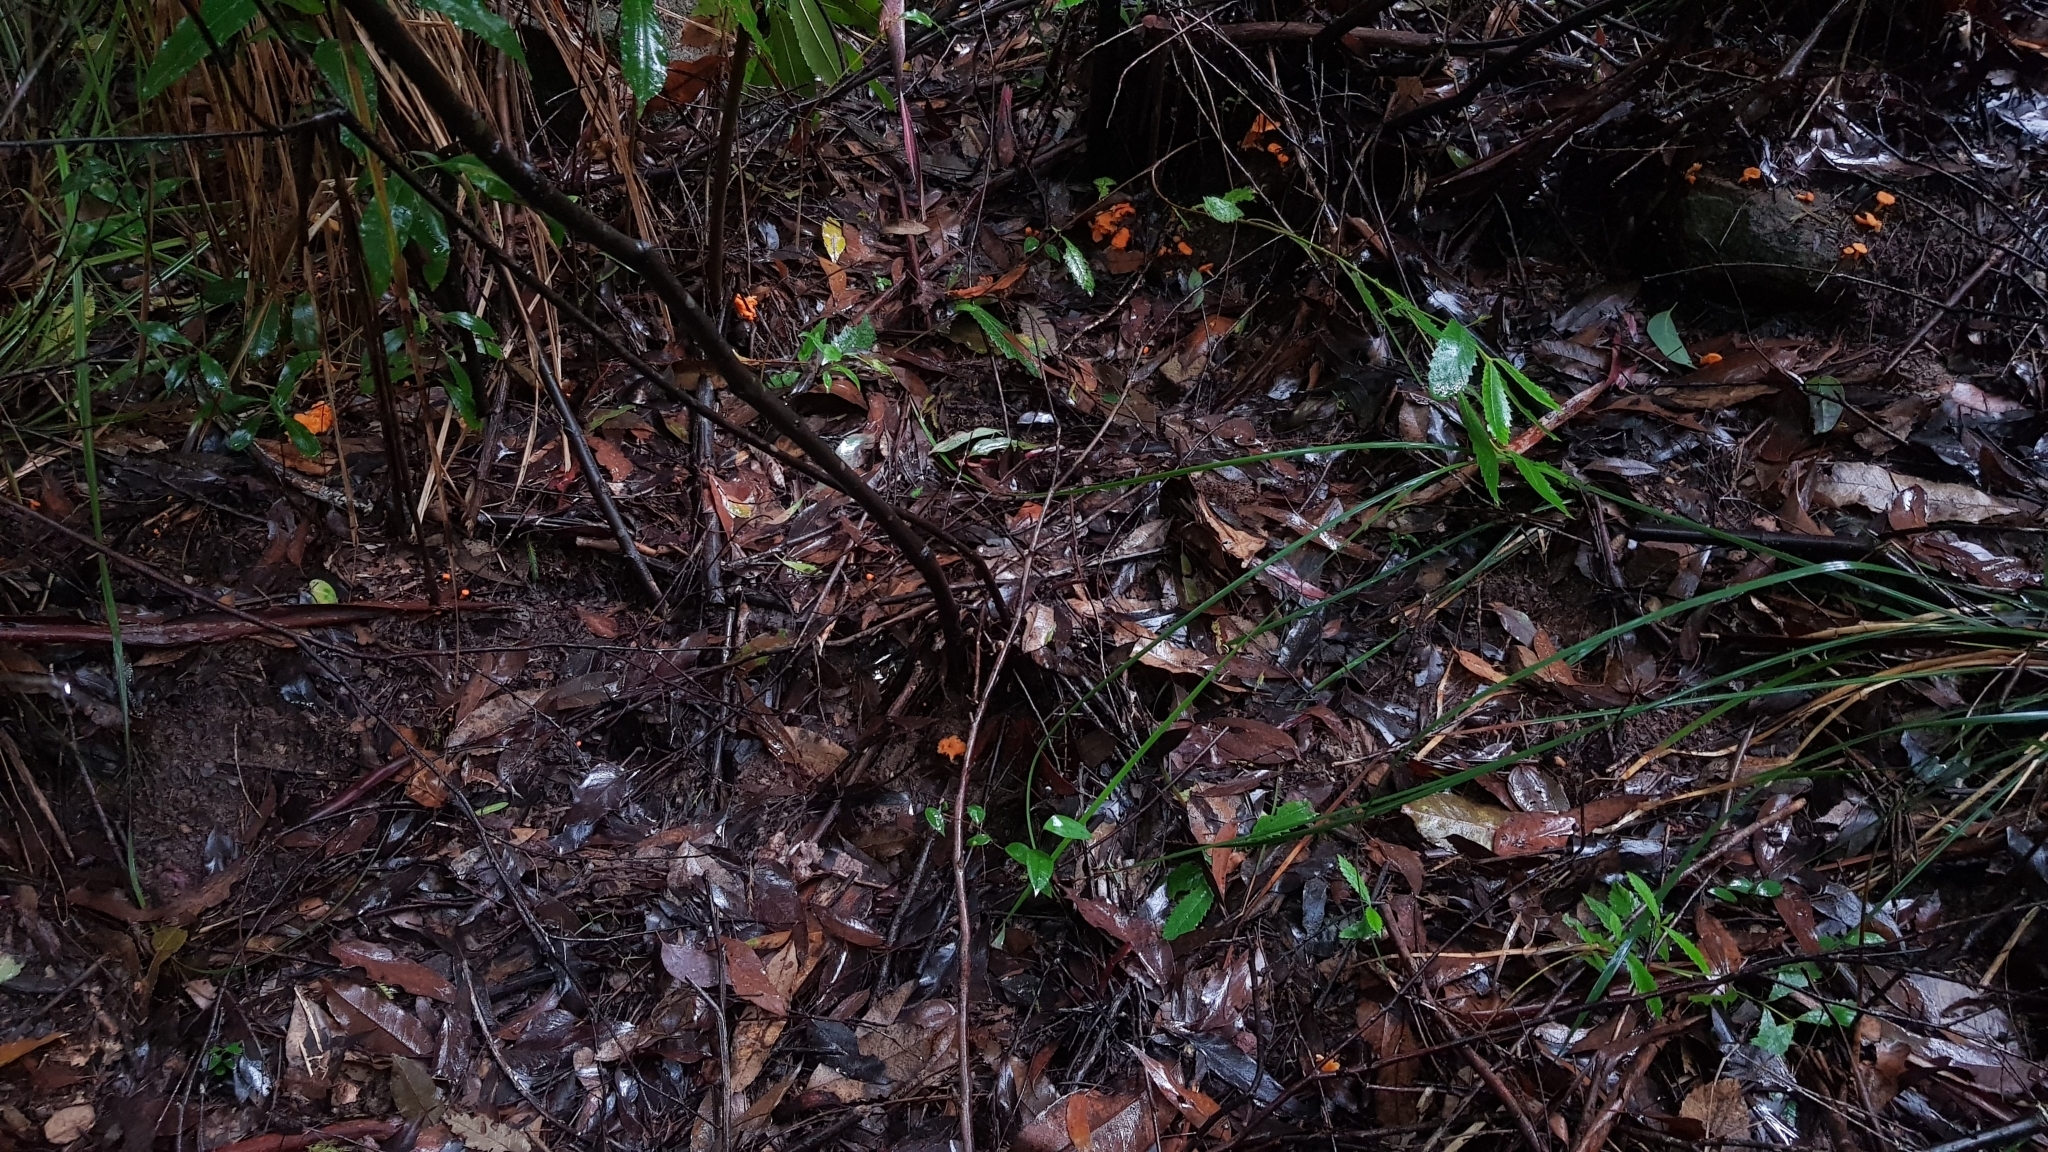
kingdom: Fungi
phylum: Basidiomycota
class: Agaricomycetes
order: Cantharellales
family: Hydnaceae
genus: Cantharellus
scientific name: Cantharellus
